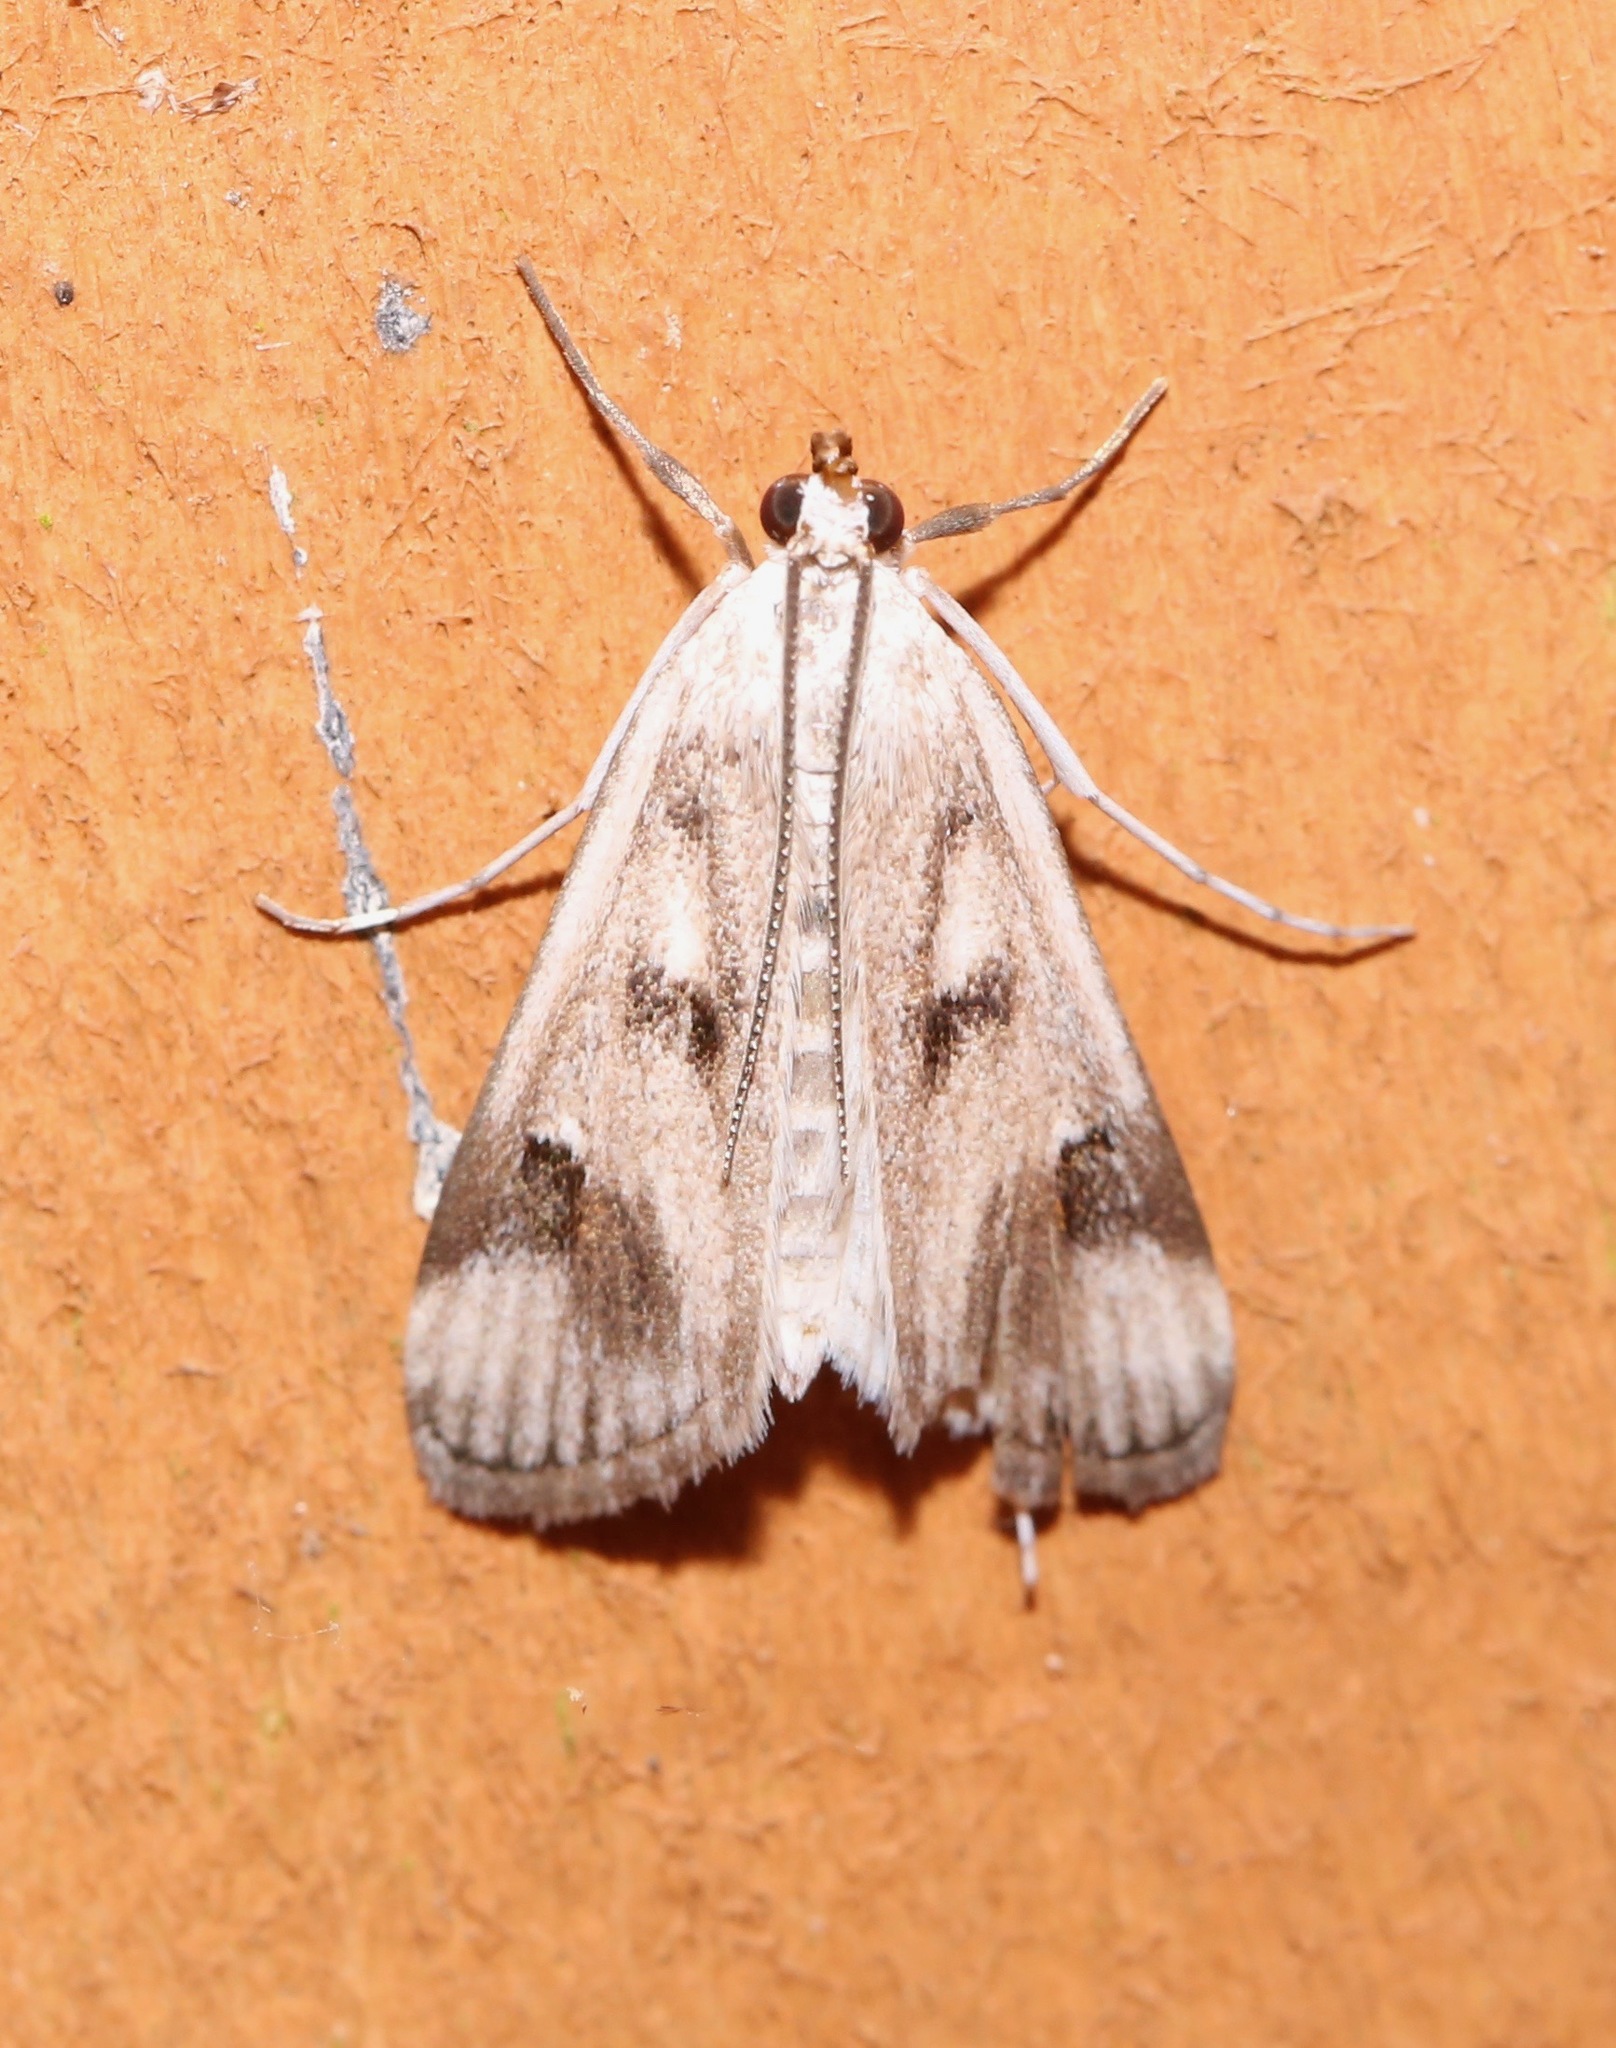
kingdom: Animalia
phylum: Arthropoda
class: Insecta
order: Lepidoptera
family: Crambidae
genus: Parapoynx
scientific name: Parapoynx maculalis
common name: Polymorphic pondweed moth
